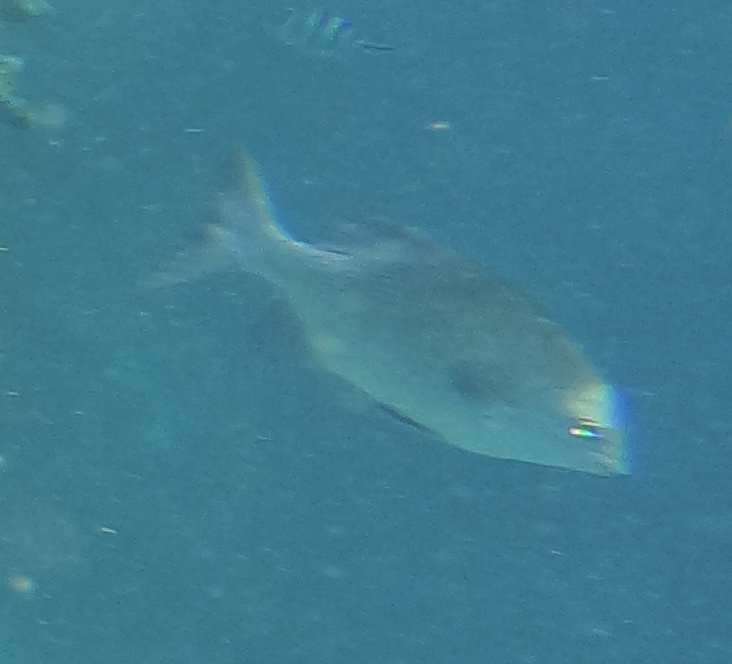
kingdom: Animalia
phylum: Chordata
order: Perciformes
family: Kyphosidae
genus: Kyphosus
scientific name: Kyphosus cinerascens
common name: Topsail drummer
